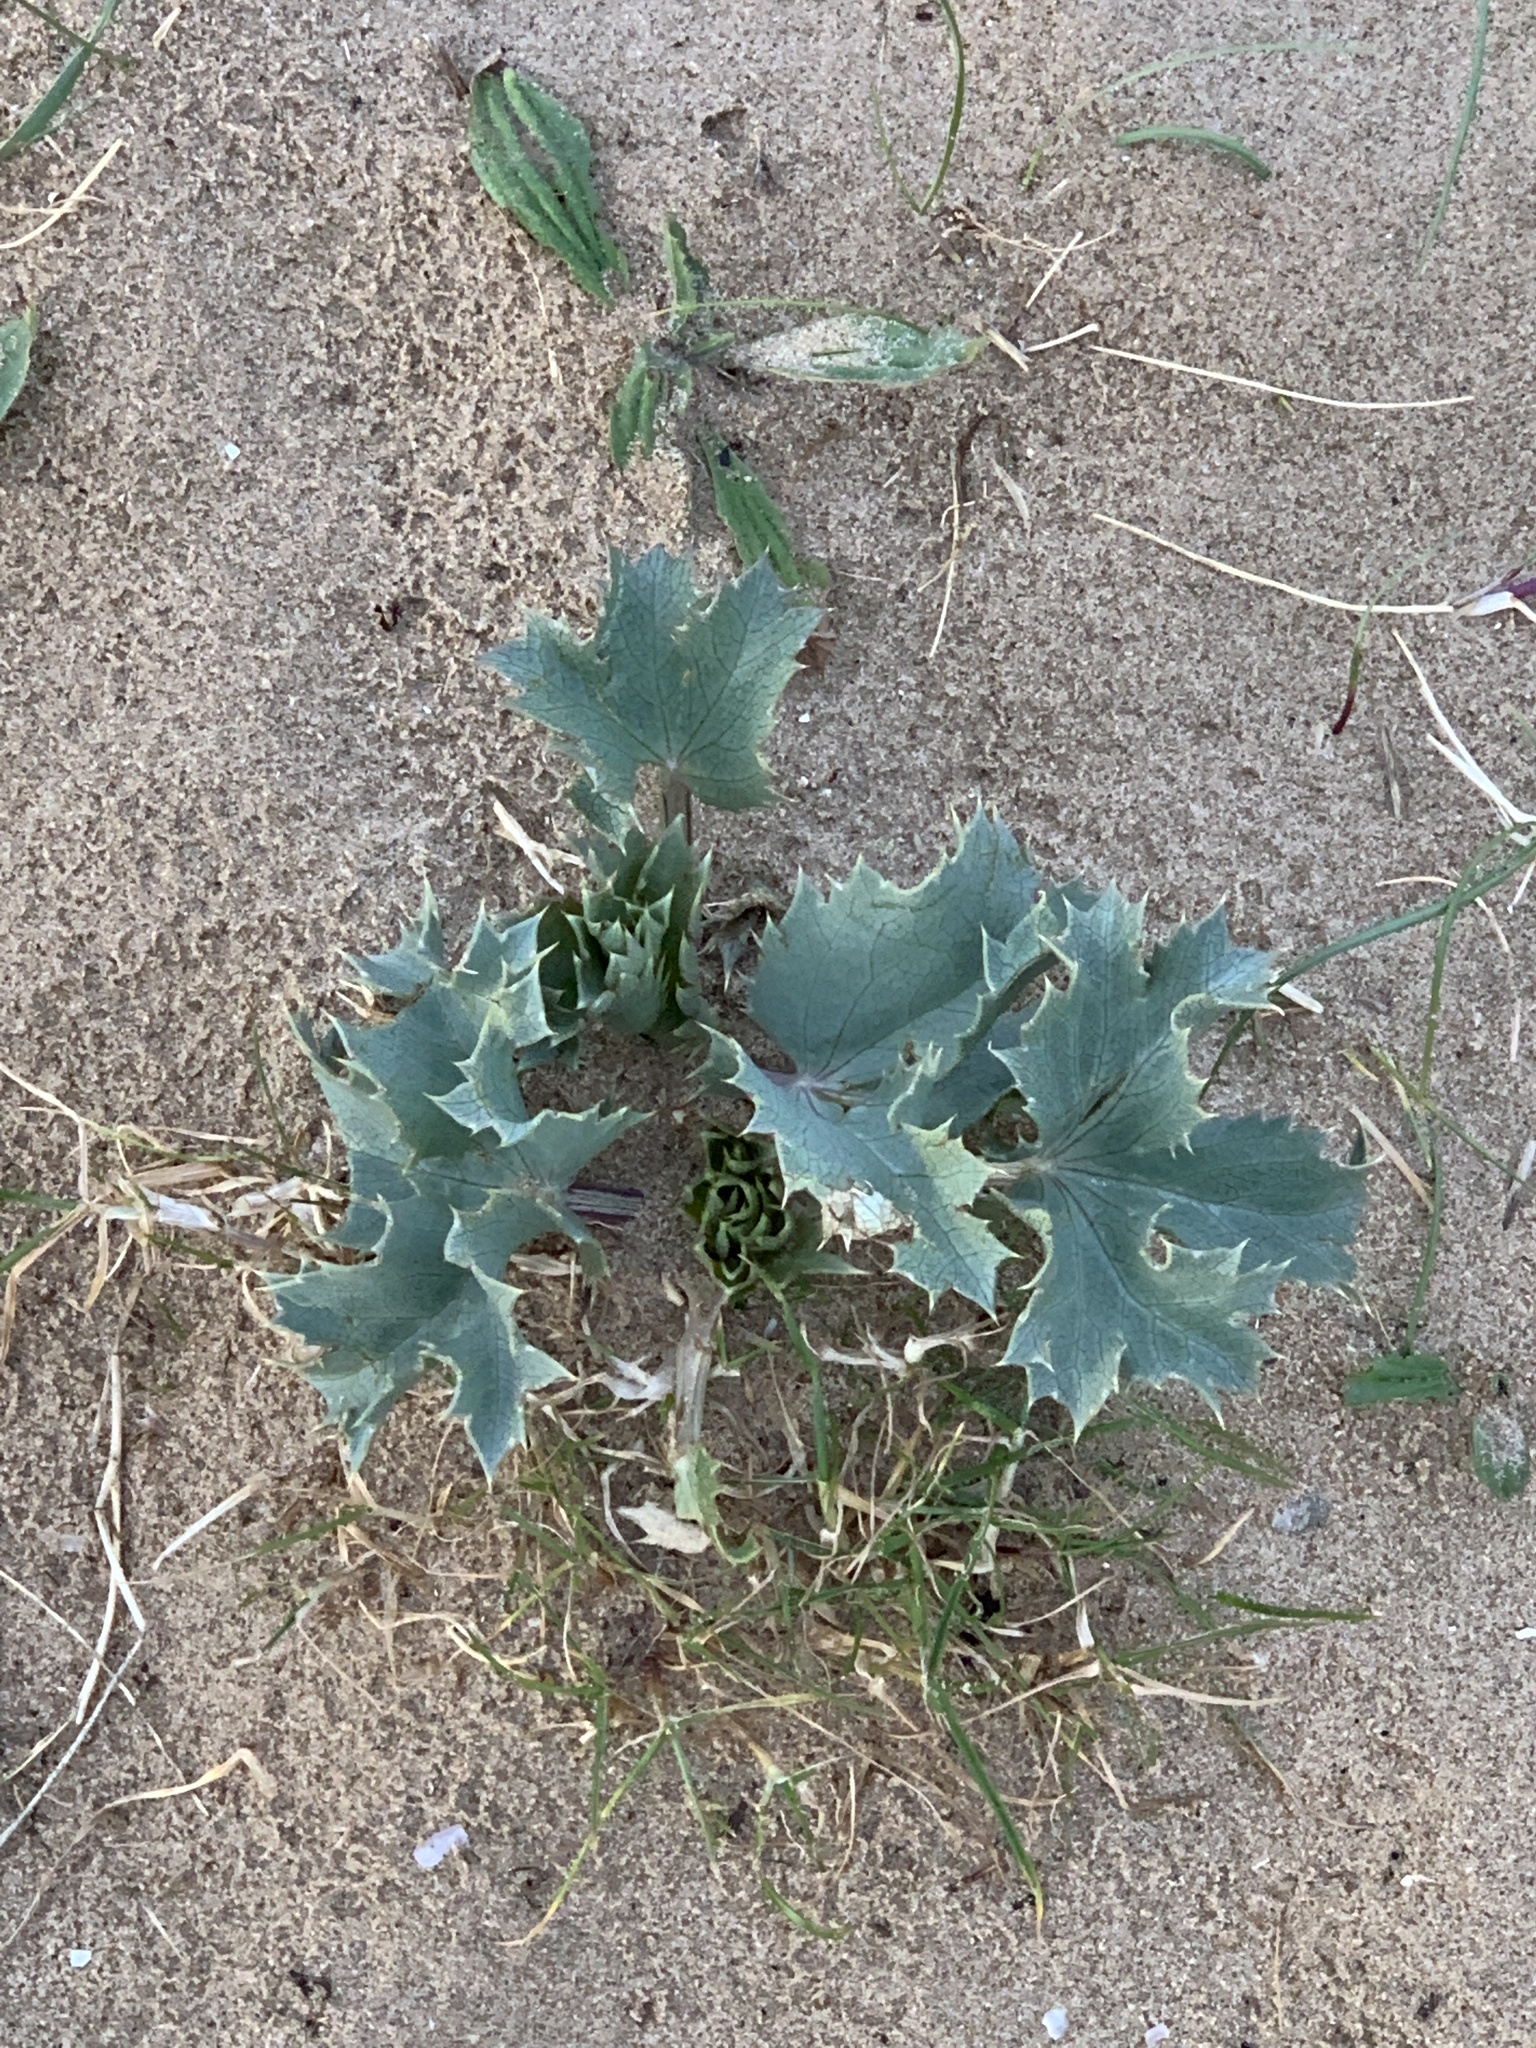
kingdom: Plantae
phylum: Tracheophyta
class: Magnoliopsida
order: Apiales
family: Apiaceae
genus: Eryngium
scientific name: Eryngium maritimum
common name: Sea-holly
